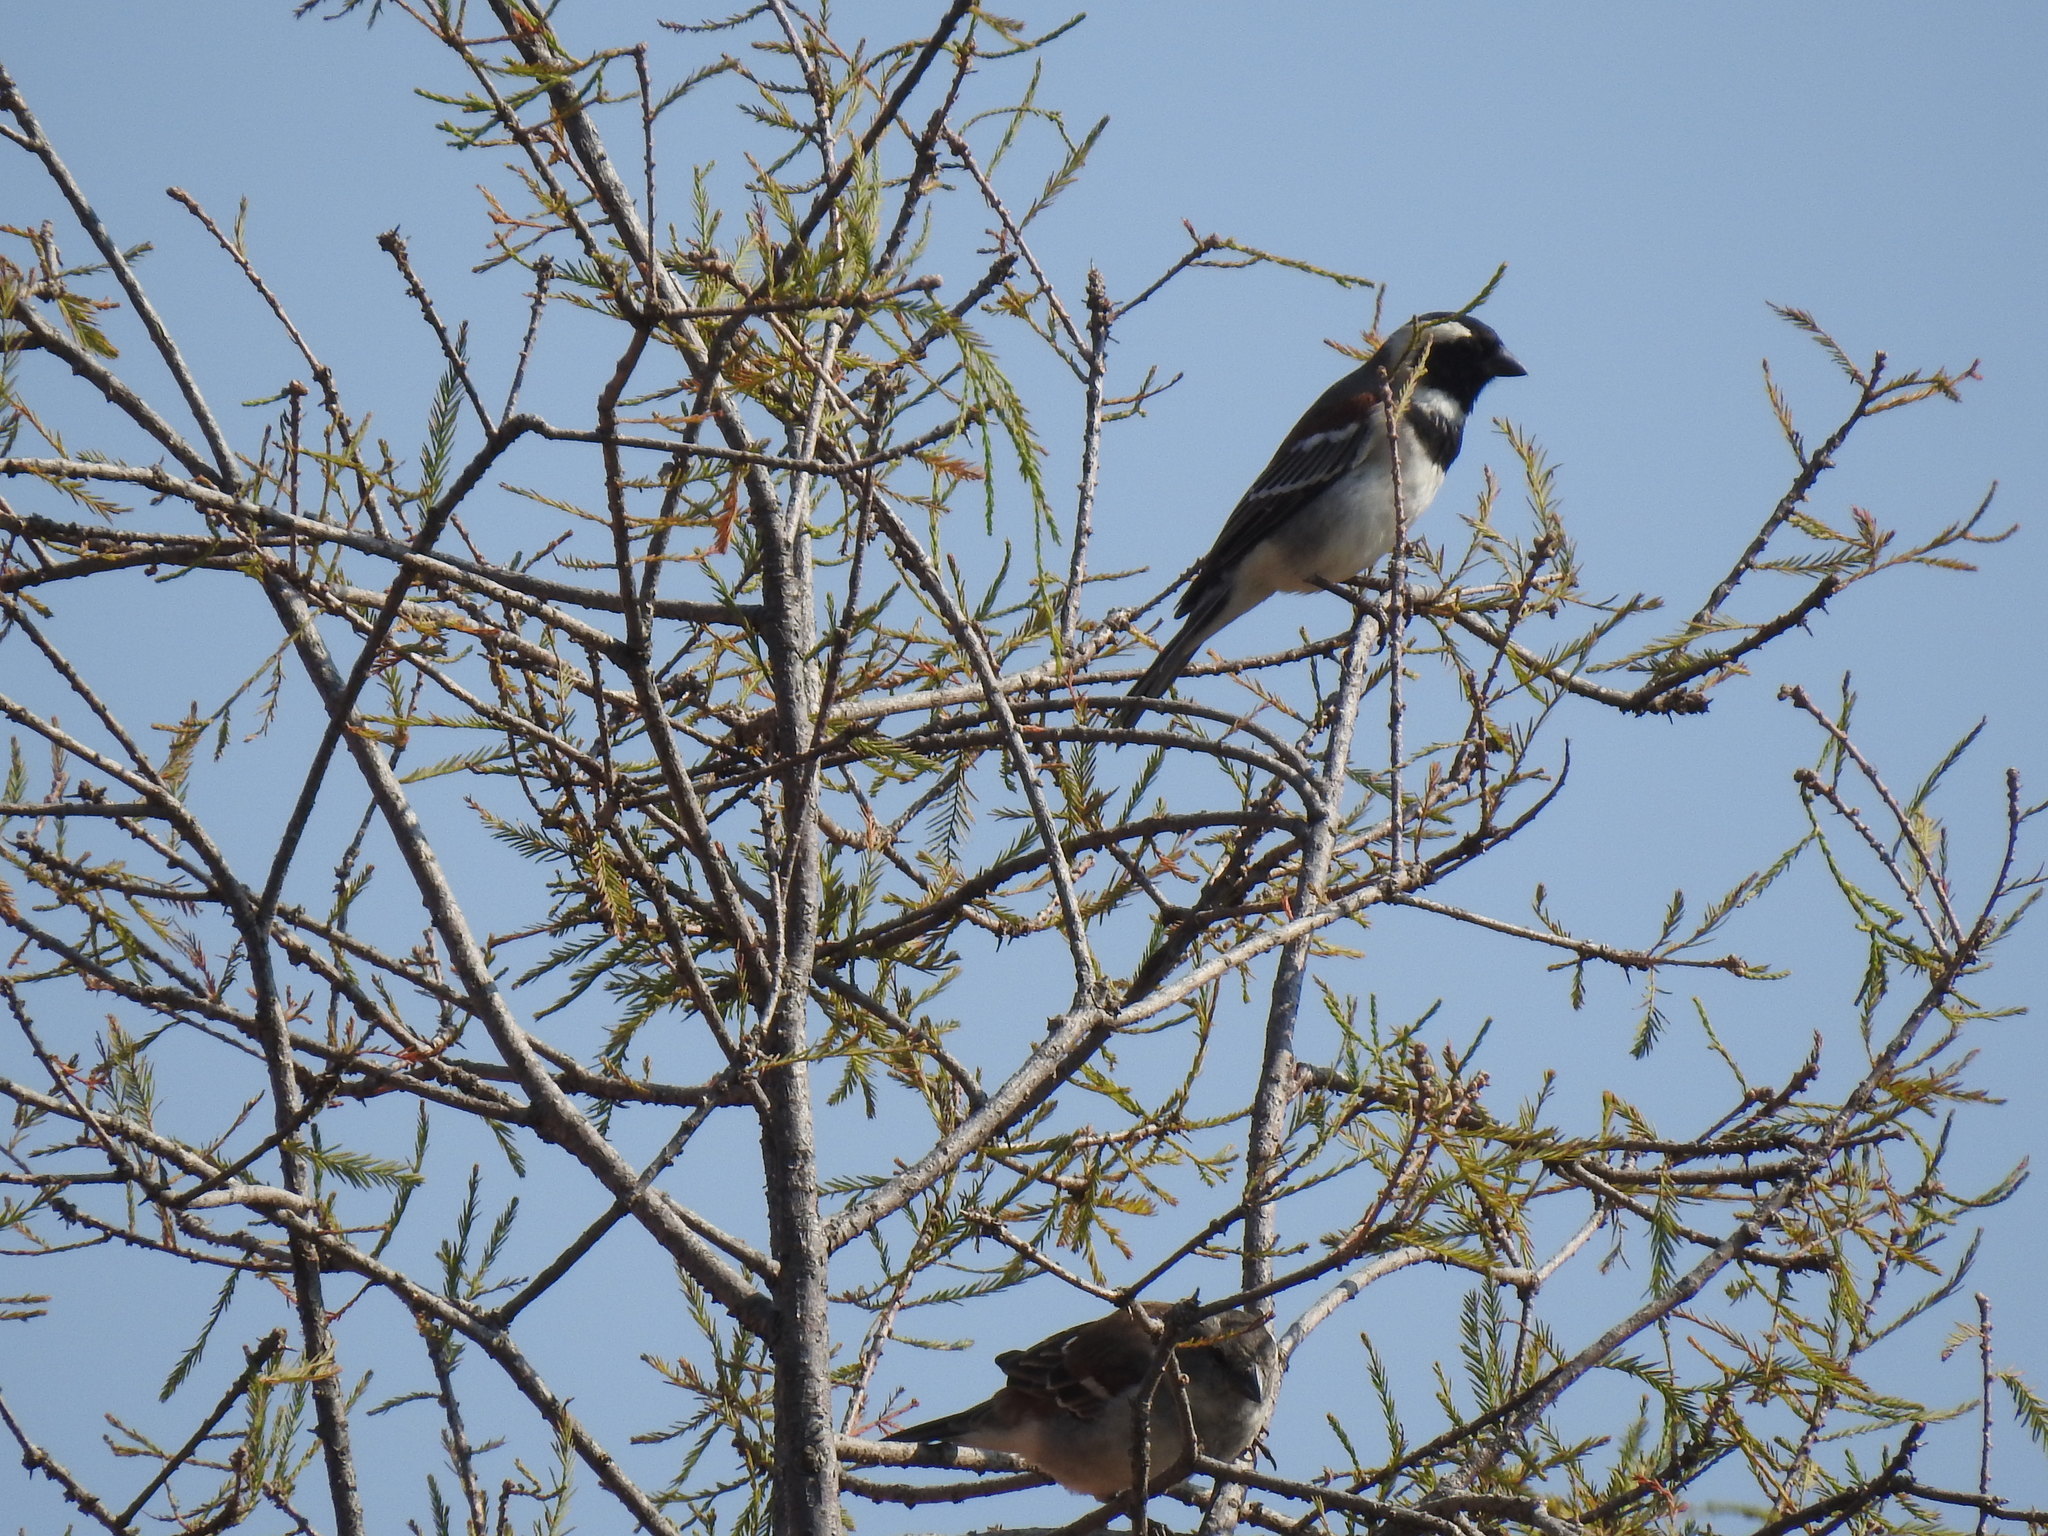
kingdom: Animalia
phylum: Chordata
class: Aves
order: Passeriformes
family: Passeridae
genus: Passer
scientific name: Passer melanurus
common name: Cape sparrow
